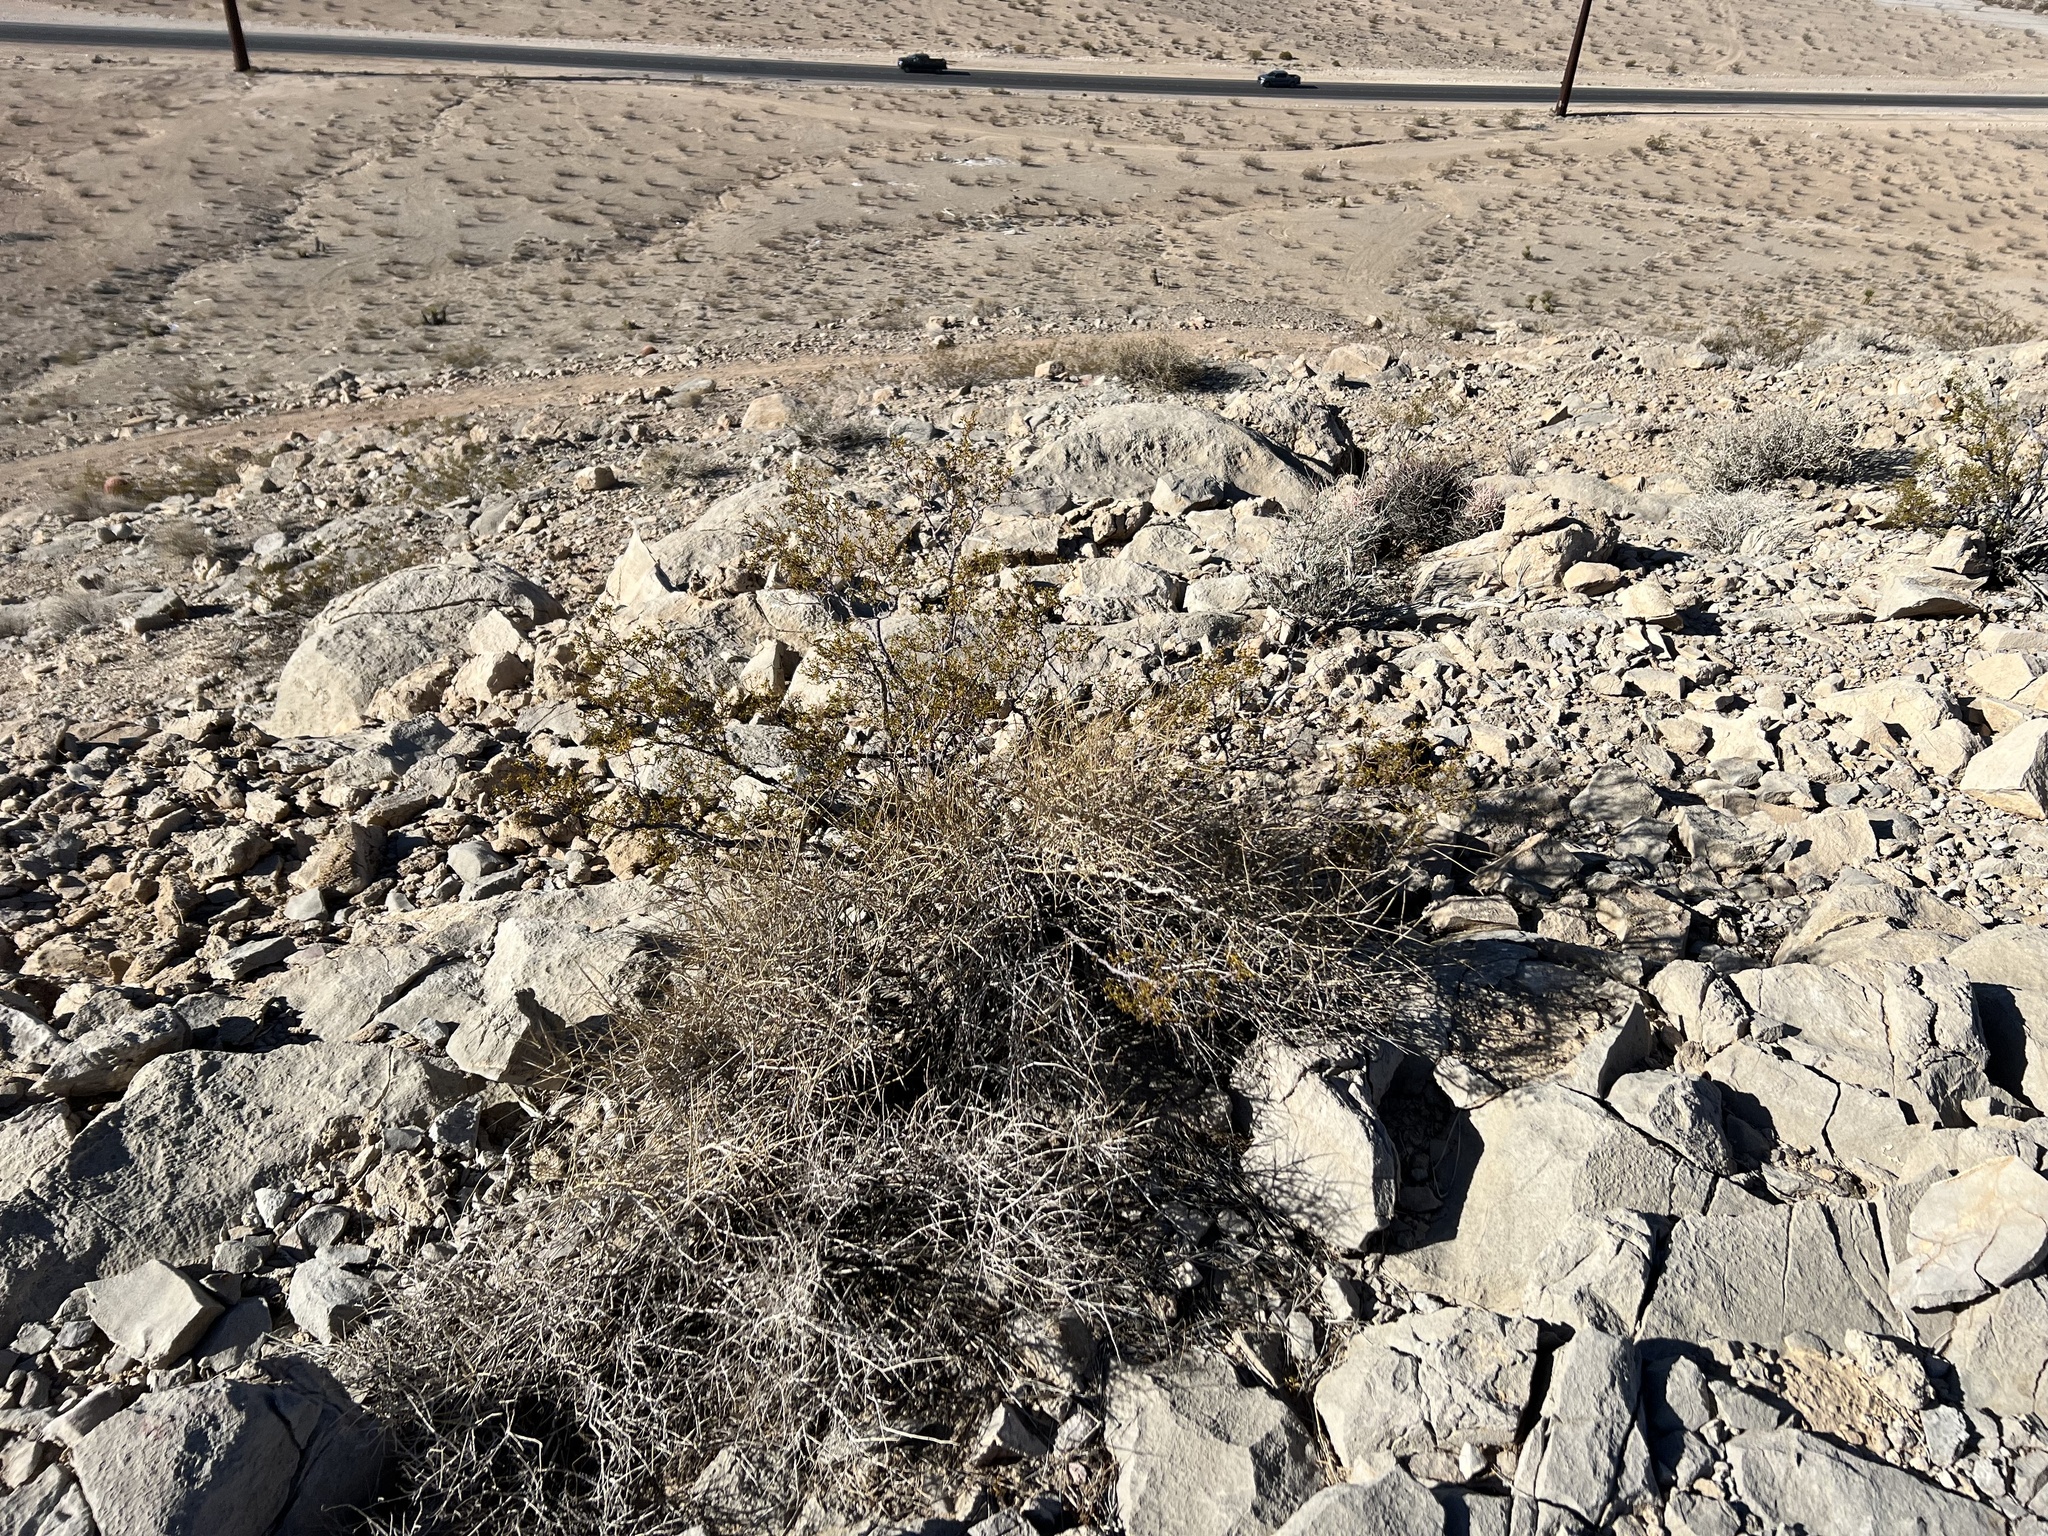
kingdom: Plantae
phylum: Tracheophyta
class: Magnoliopsida
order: Zygophyllales
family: Zygophyllaceae
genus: Larrea
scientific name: Larrea tridentata
